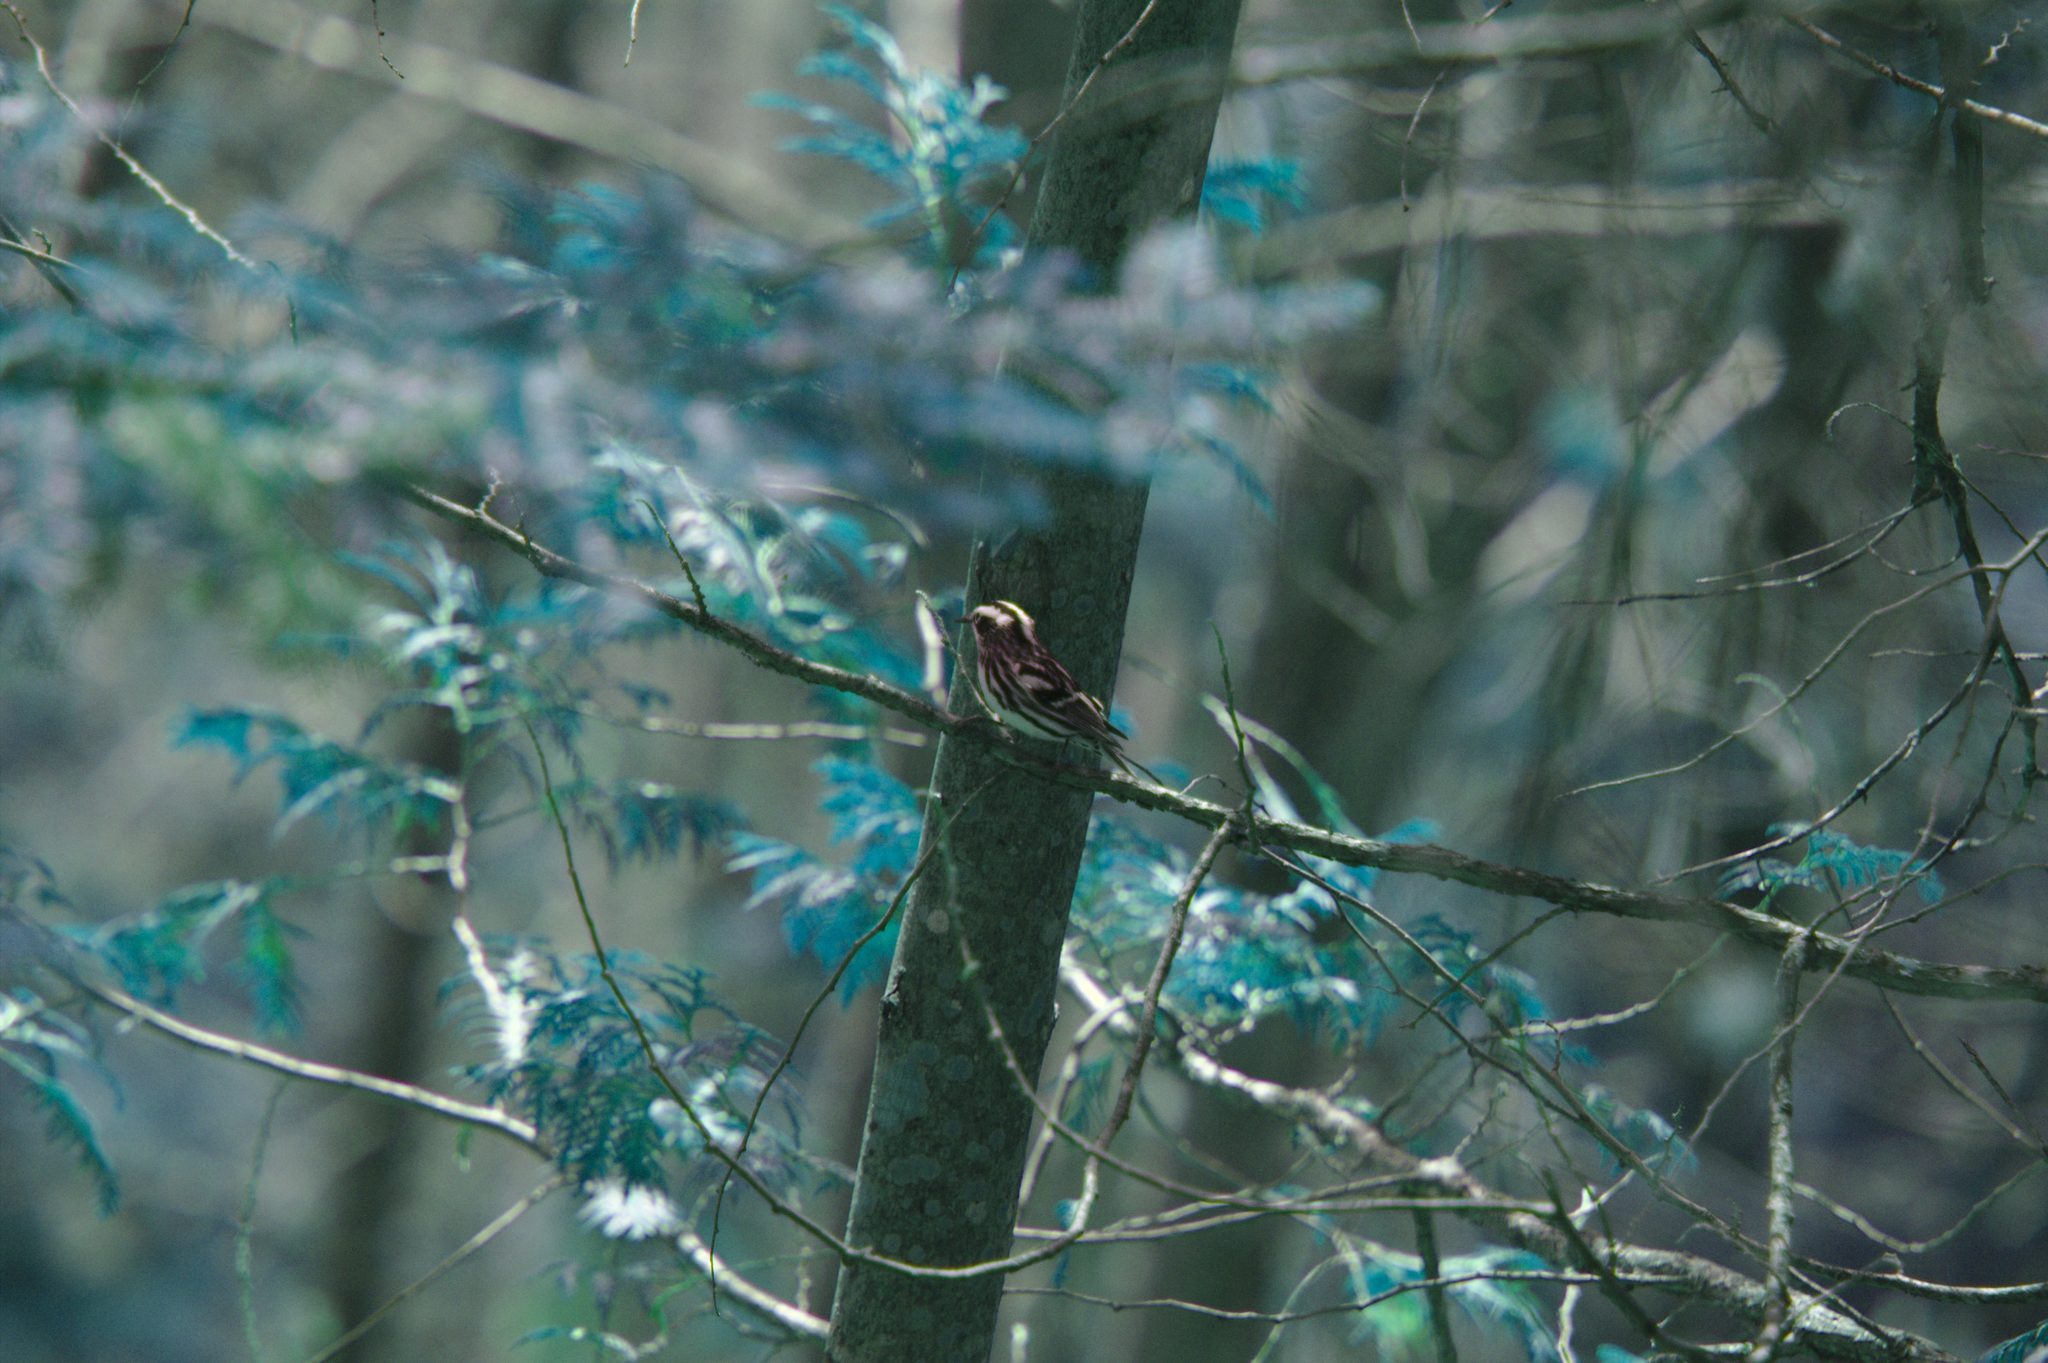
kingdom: Animalia
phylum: Chordata
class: Aves
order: Passeriformes
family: Parulidae
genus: Mniotilta
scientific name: Mniotilta varia
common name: Black-and-white warbler
